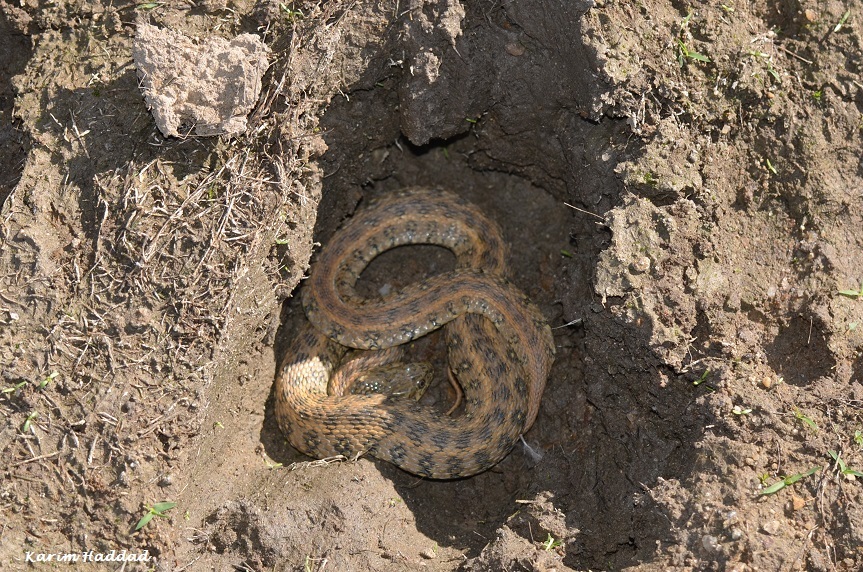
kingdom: Animalia
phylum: Chordata
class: Squamata
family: Colubridae
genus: Natrix
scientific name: Natrix maura
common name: Viperine water snake
